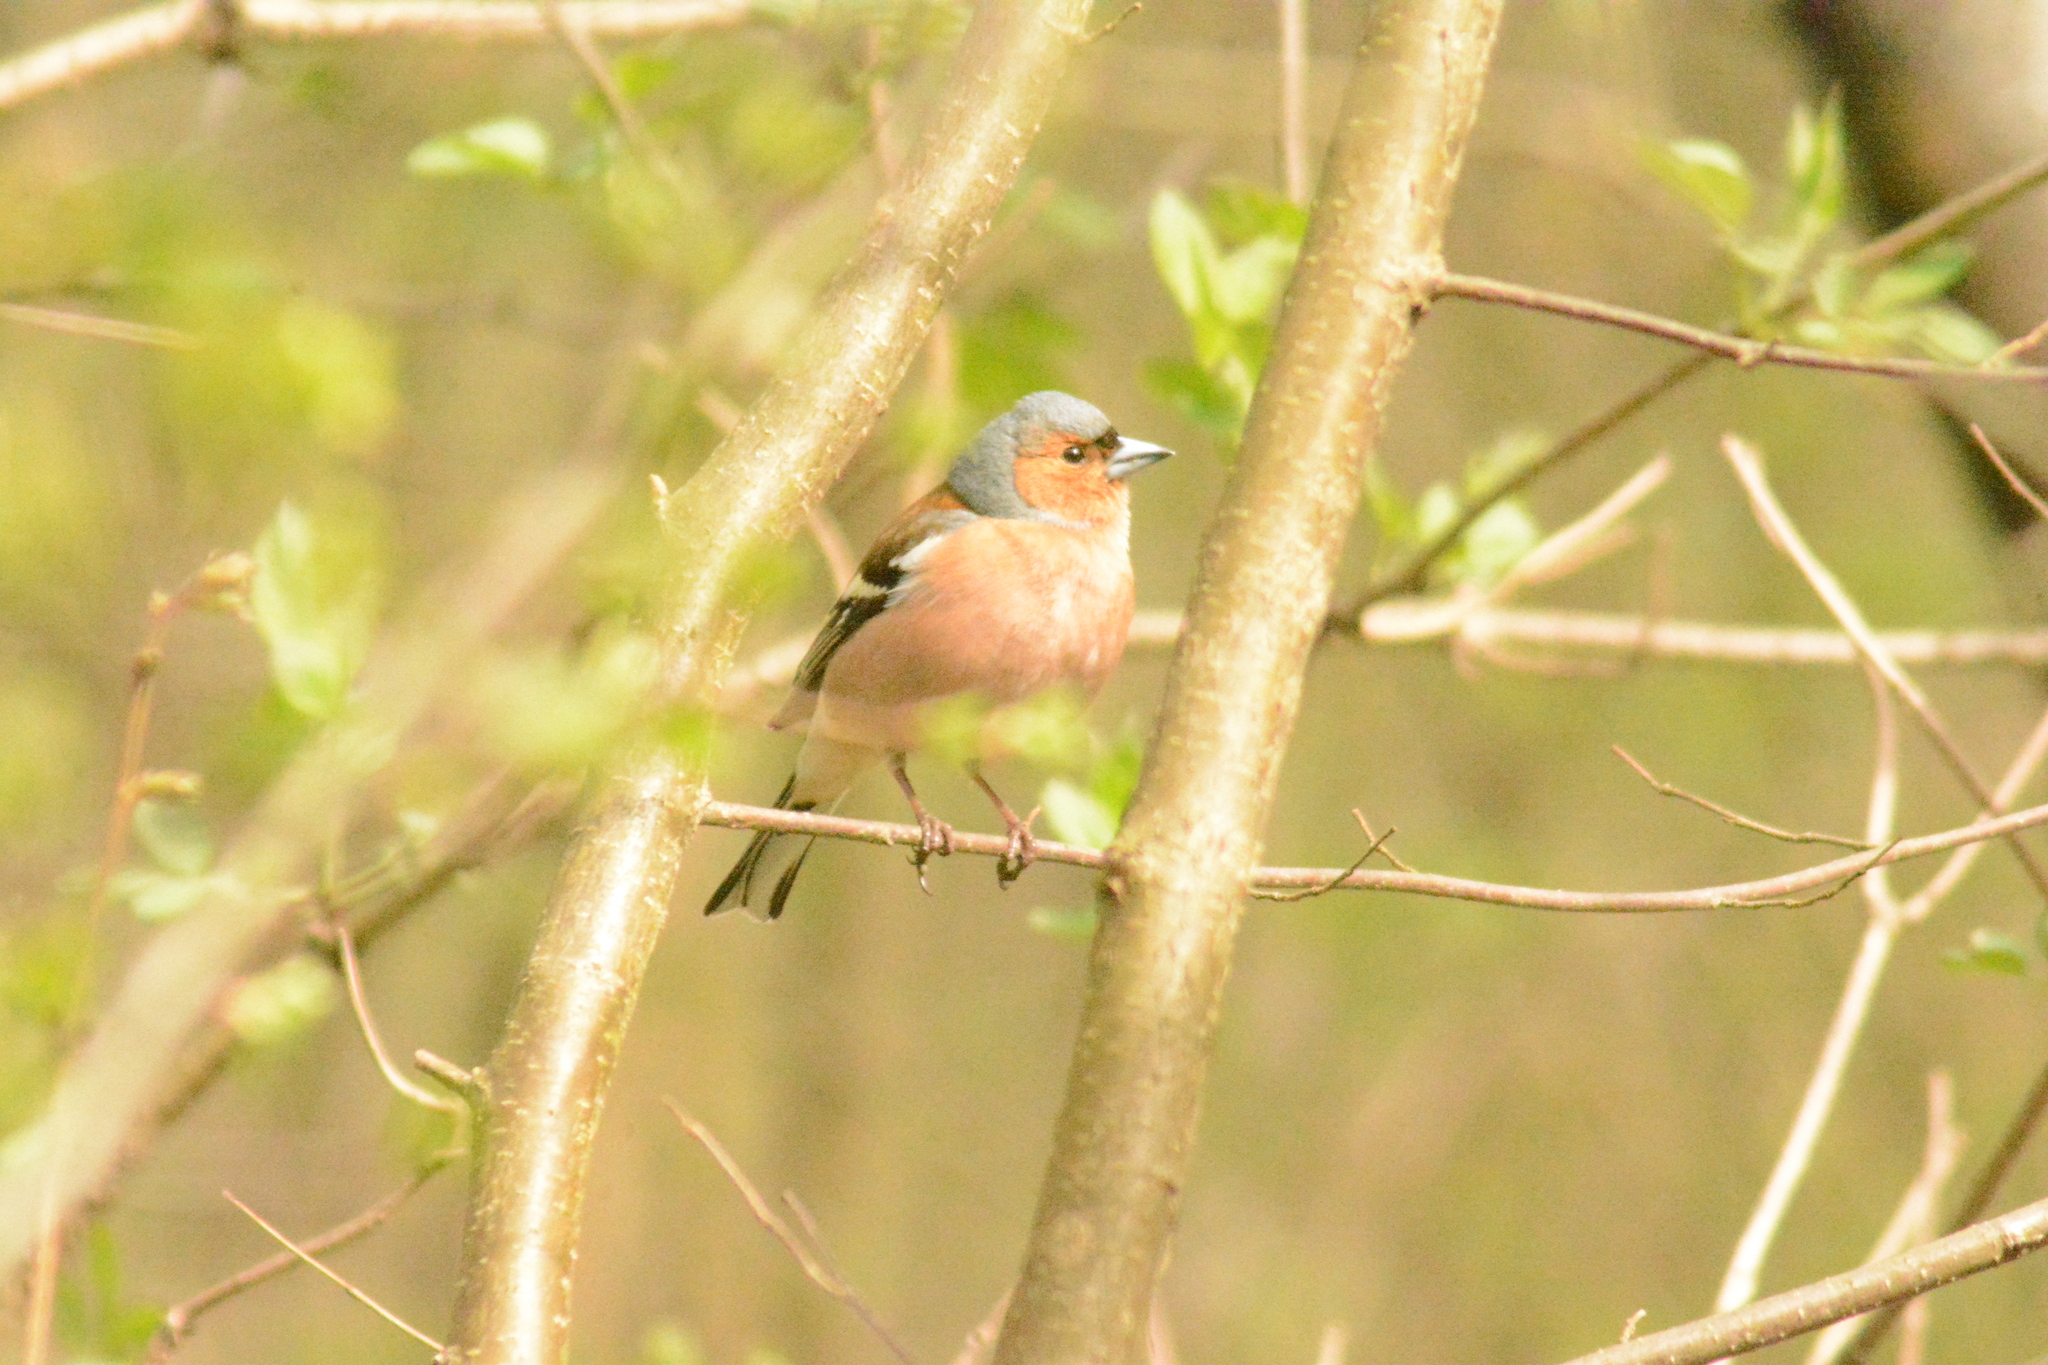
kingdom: Animalia
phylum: Chordata
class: Aves
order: Passeriformes
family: Fringillidae
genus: Fringilla
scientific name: Fringilla coelebs
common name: Common chaffinch
